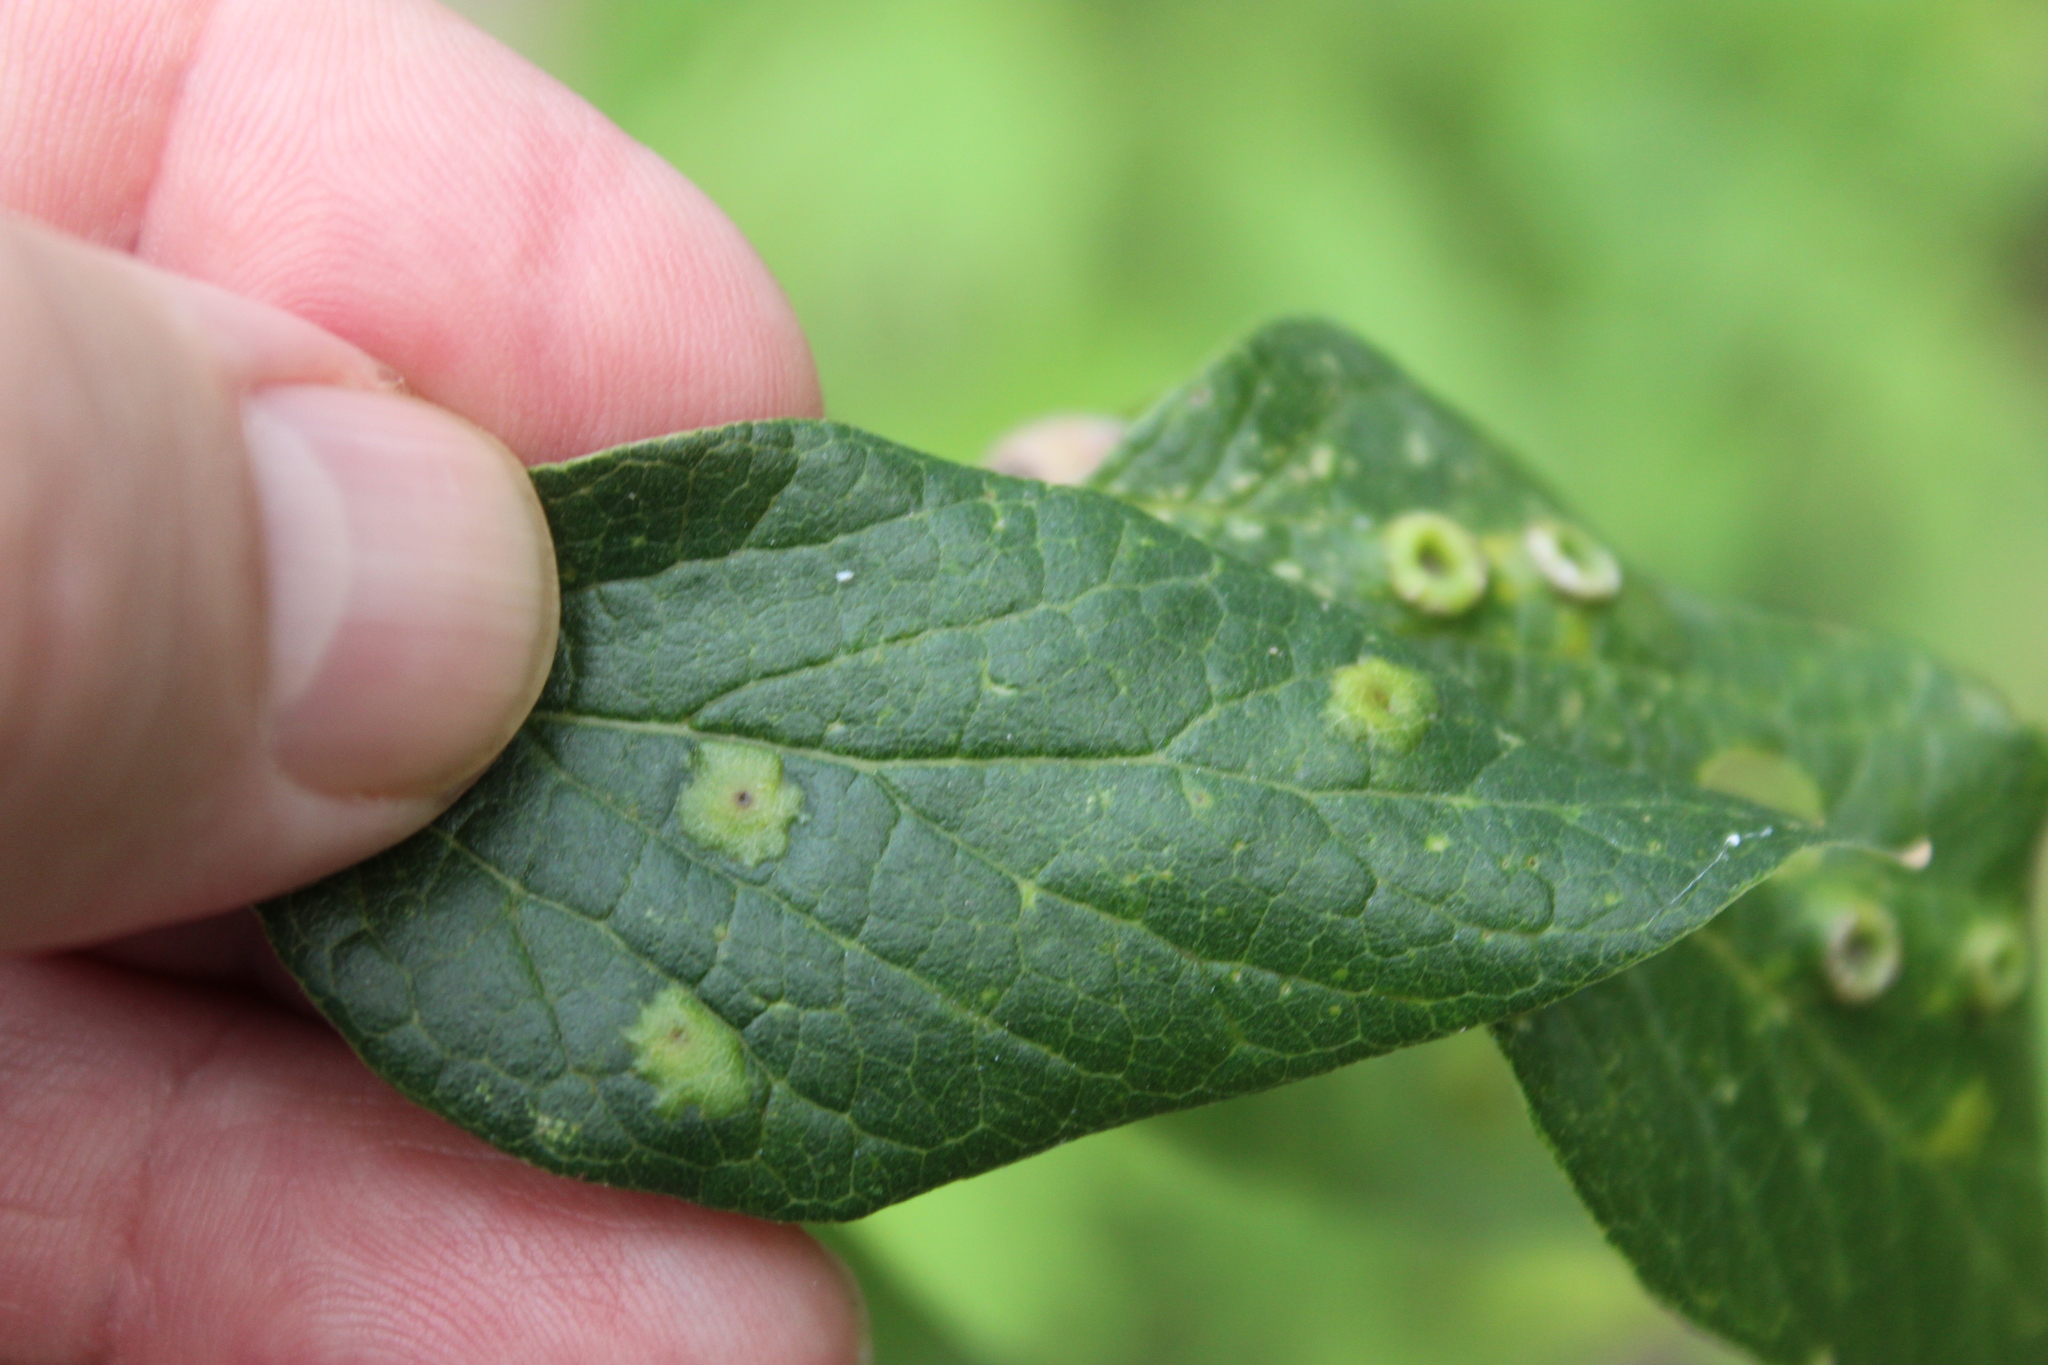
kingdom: Animalia
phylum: Arthropoda
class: Insecta
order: Hemiptera
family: Aphalaridae
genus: Pachypsylla
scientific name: Pachypsylla celtidisvesicula
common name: Hackberry blister gall psyllid
